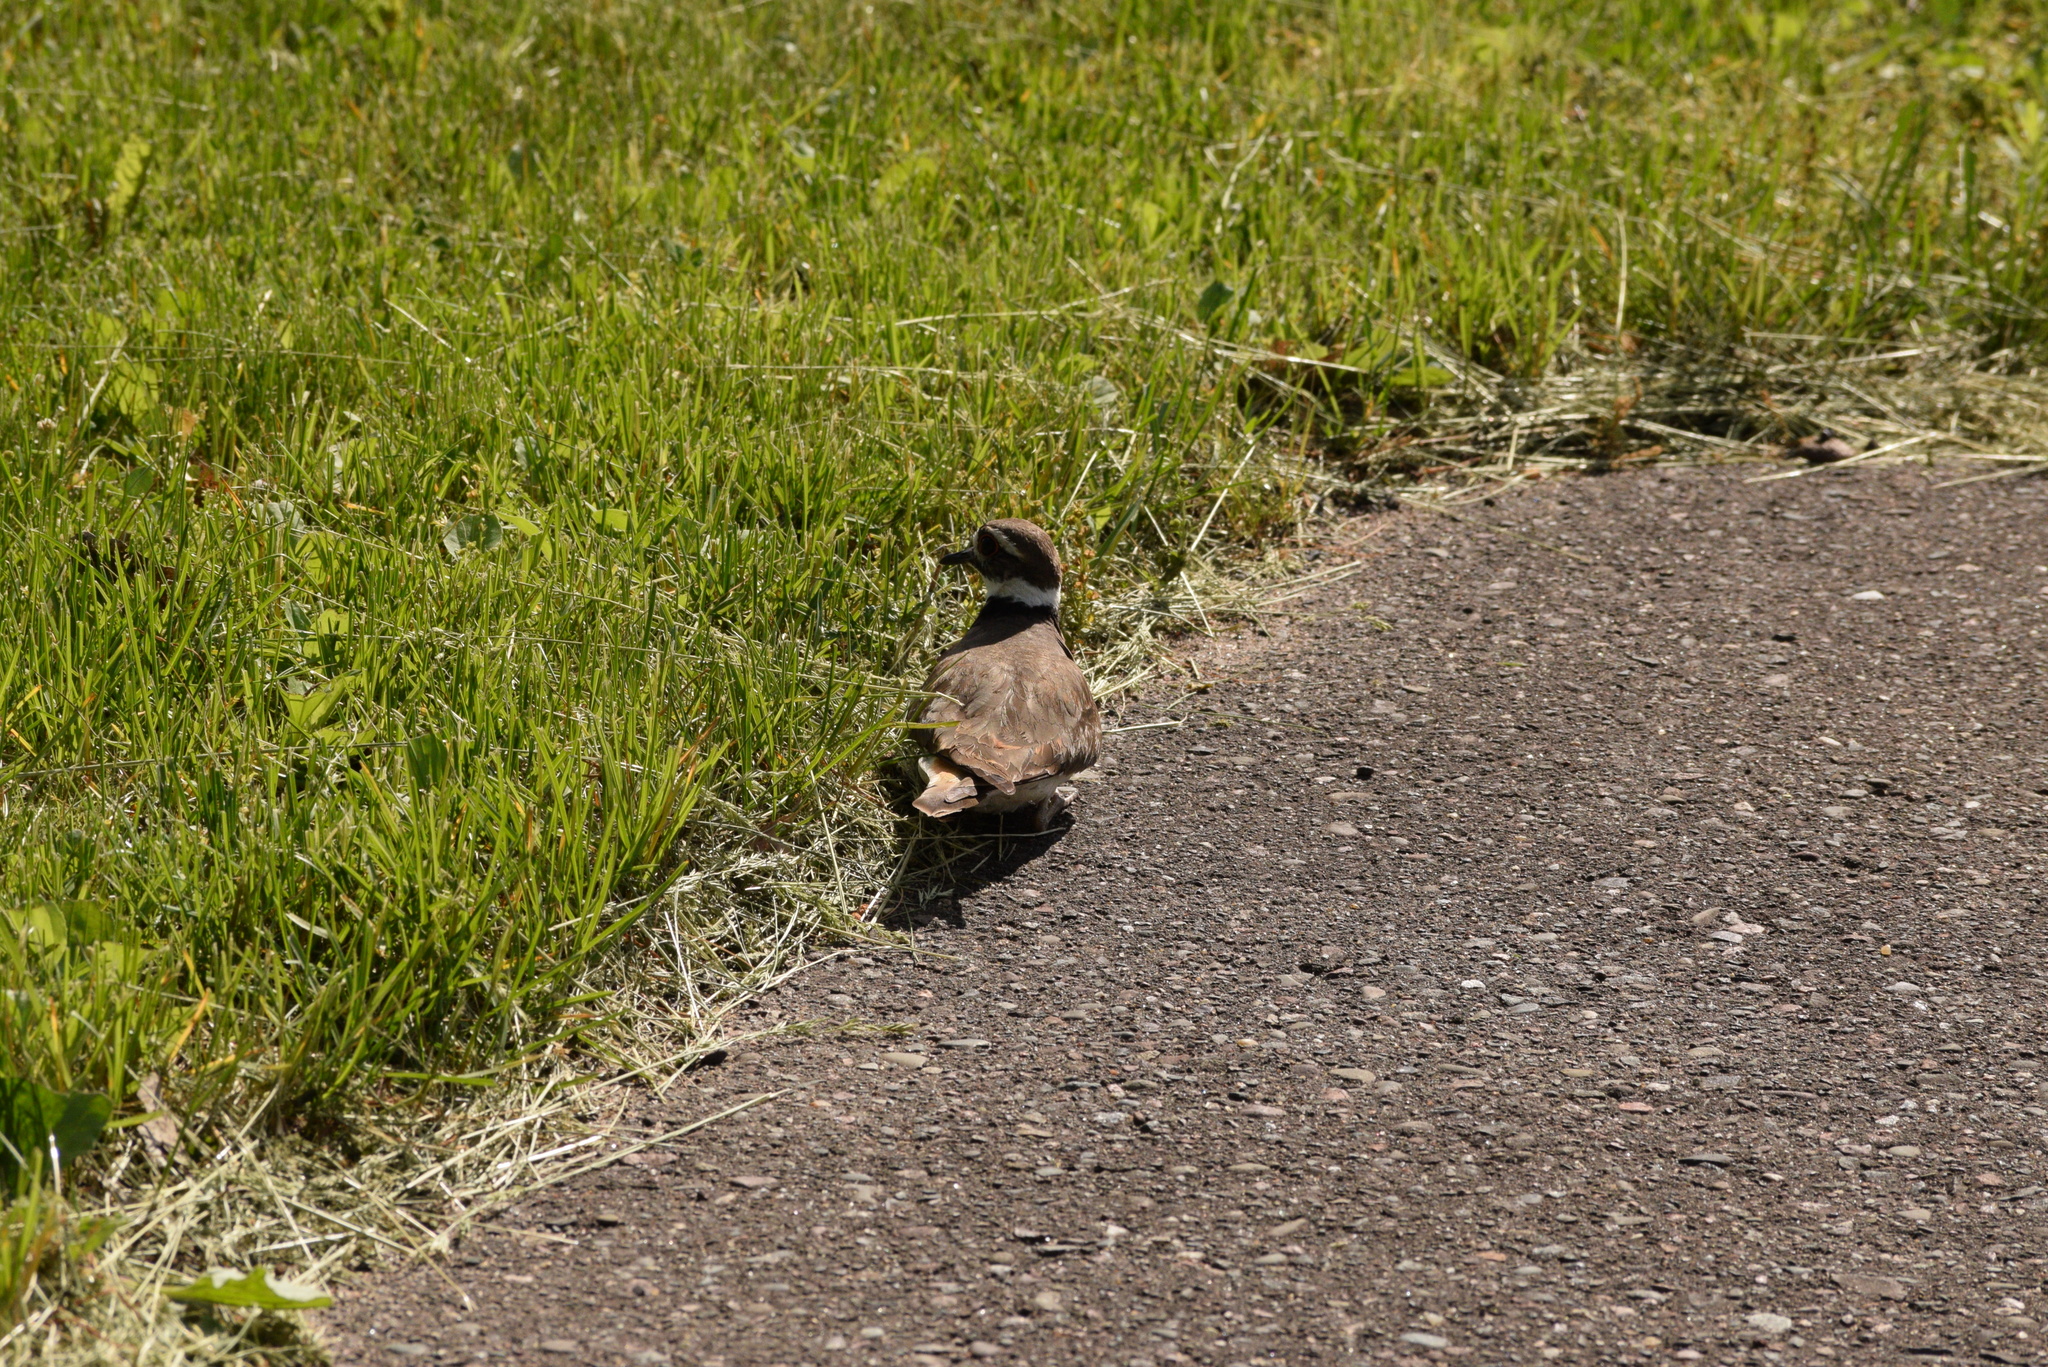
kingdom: Animalia
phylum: Chordata
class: Aves
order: Charadriiformes
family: Charadriidae
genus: Charadrius
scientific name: Charadrius vociferus
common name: Killdeer
